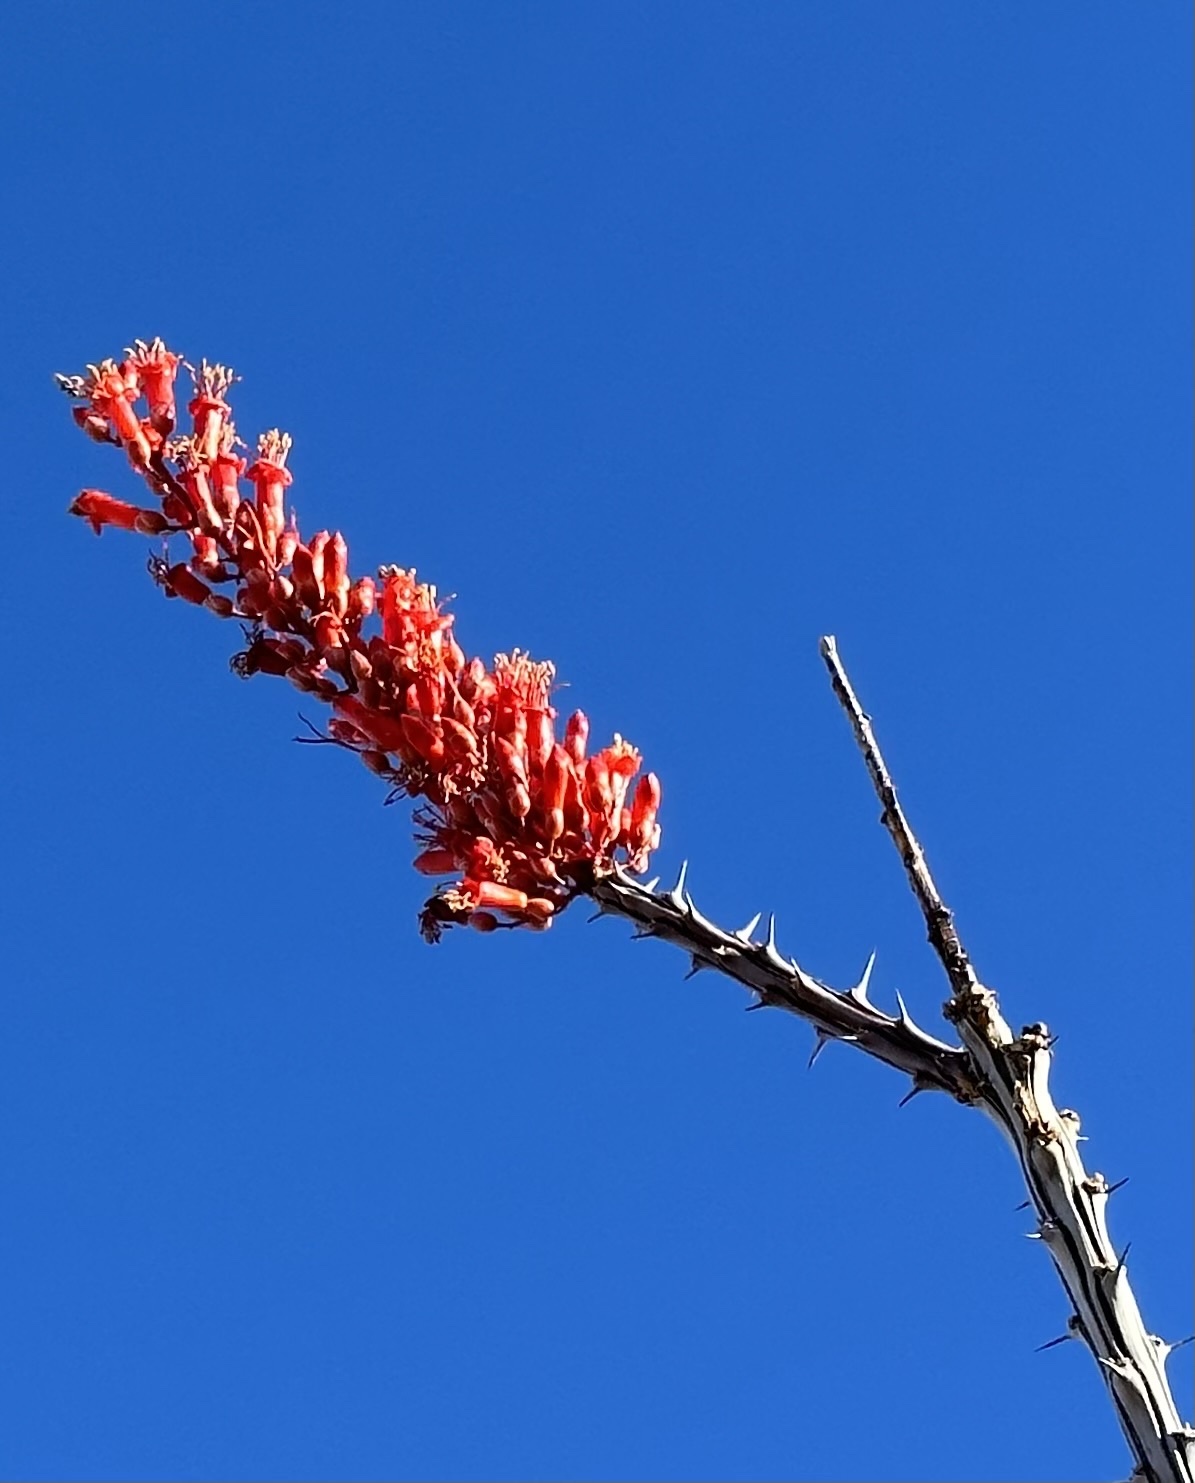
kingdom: Plantae
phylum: Tracheophyta
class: Magnoliopsida
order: Ericales
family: Fouquieriaceae
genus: Fouquieria
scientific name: Fouquieria splendens
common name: Vine-cactus
